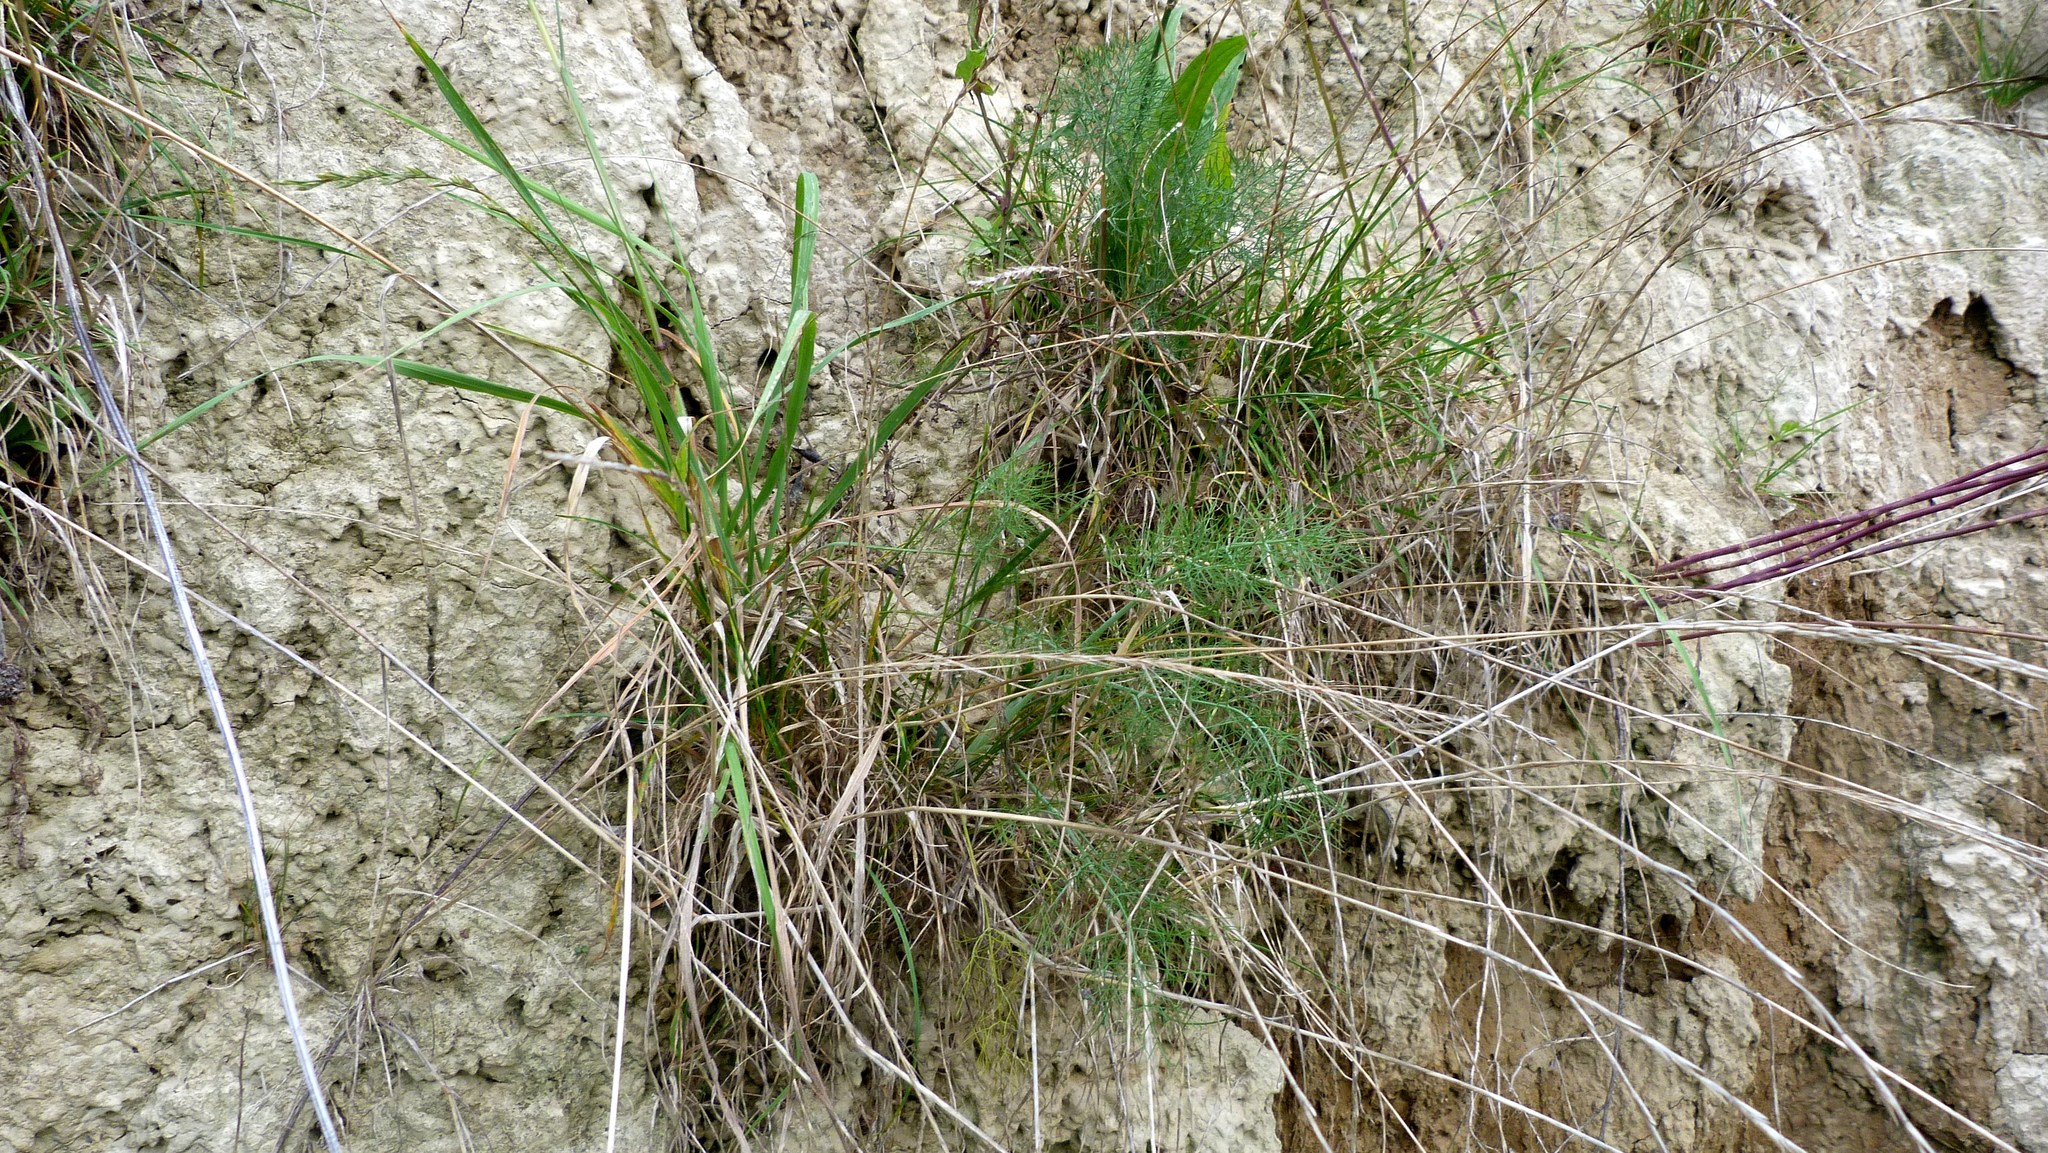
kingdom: Plantae
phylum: Tracheophyta
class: Magnoliopsida
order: Apiales
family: Apiaceae
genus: Foeniculum
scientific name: Foeniculum vulgare
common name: Fennel
